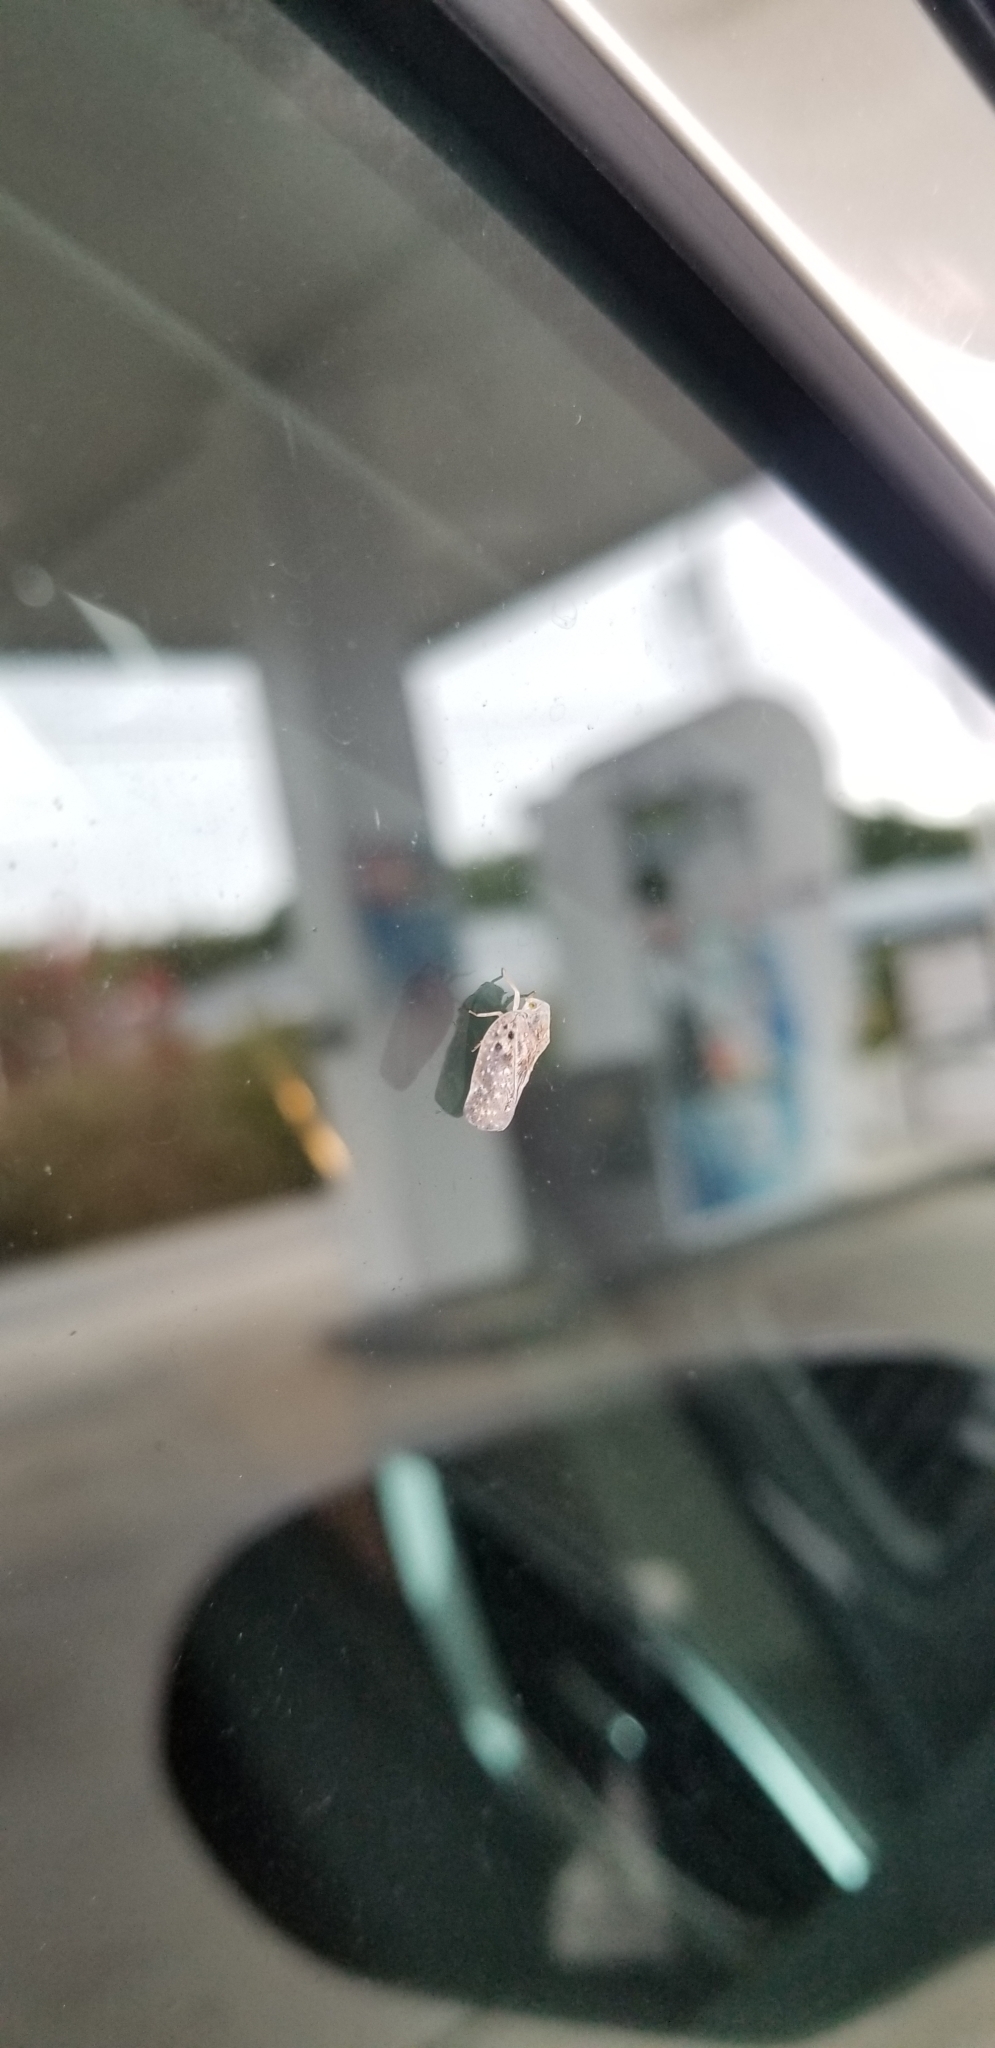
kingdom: Animalia
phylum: Arthropoda
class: Insecta
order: Hemiptera
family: Flatidae
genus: Metcalfa
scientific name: Metcalfa pruinosa
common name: Citrus flatid planthopper
